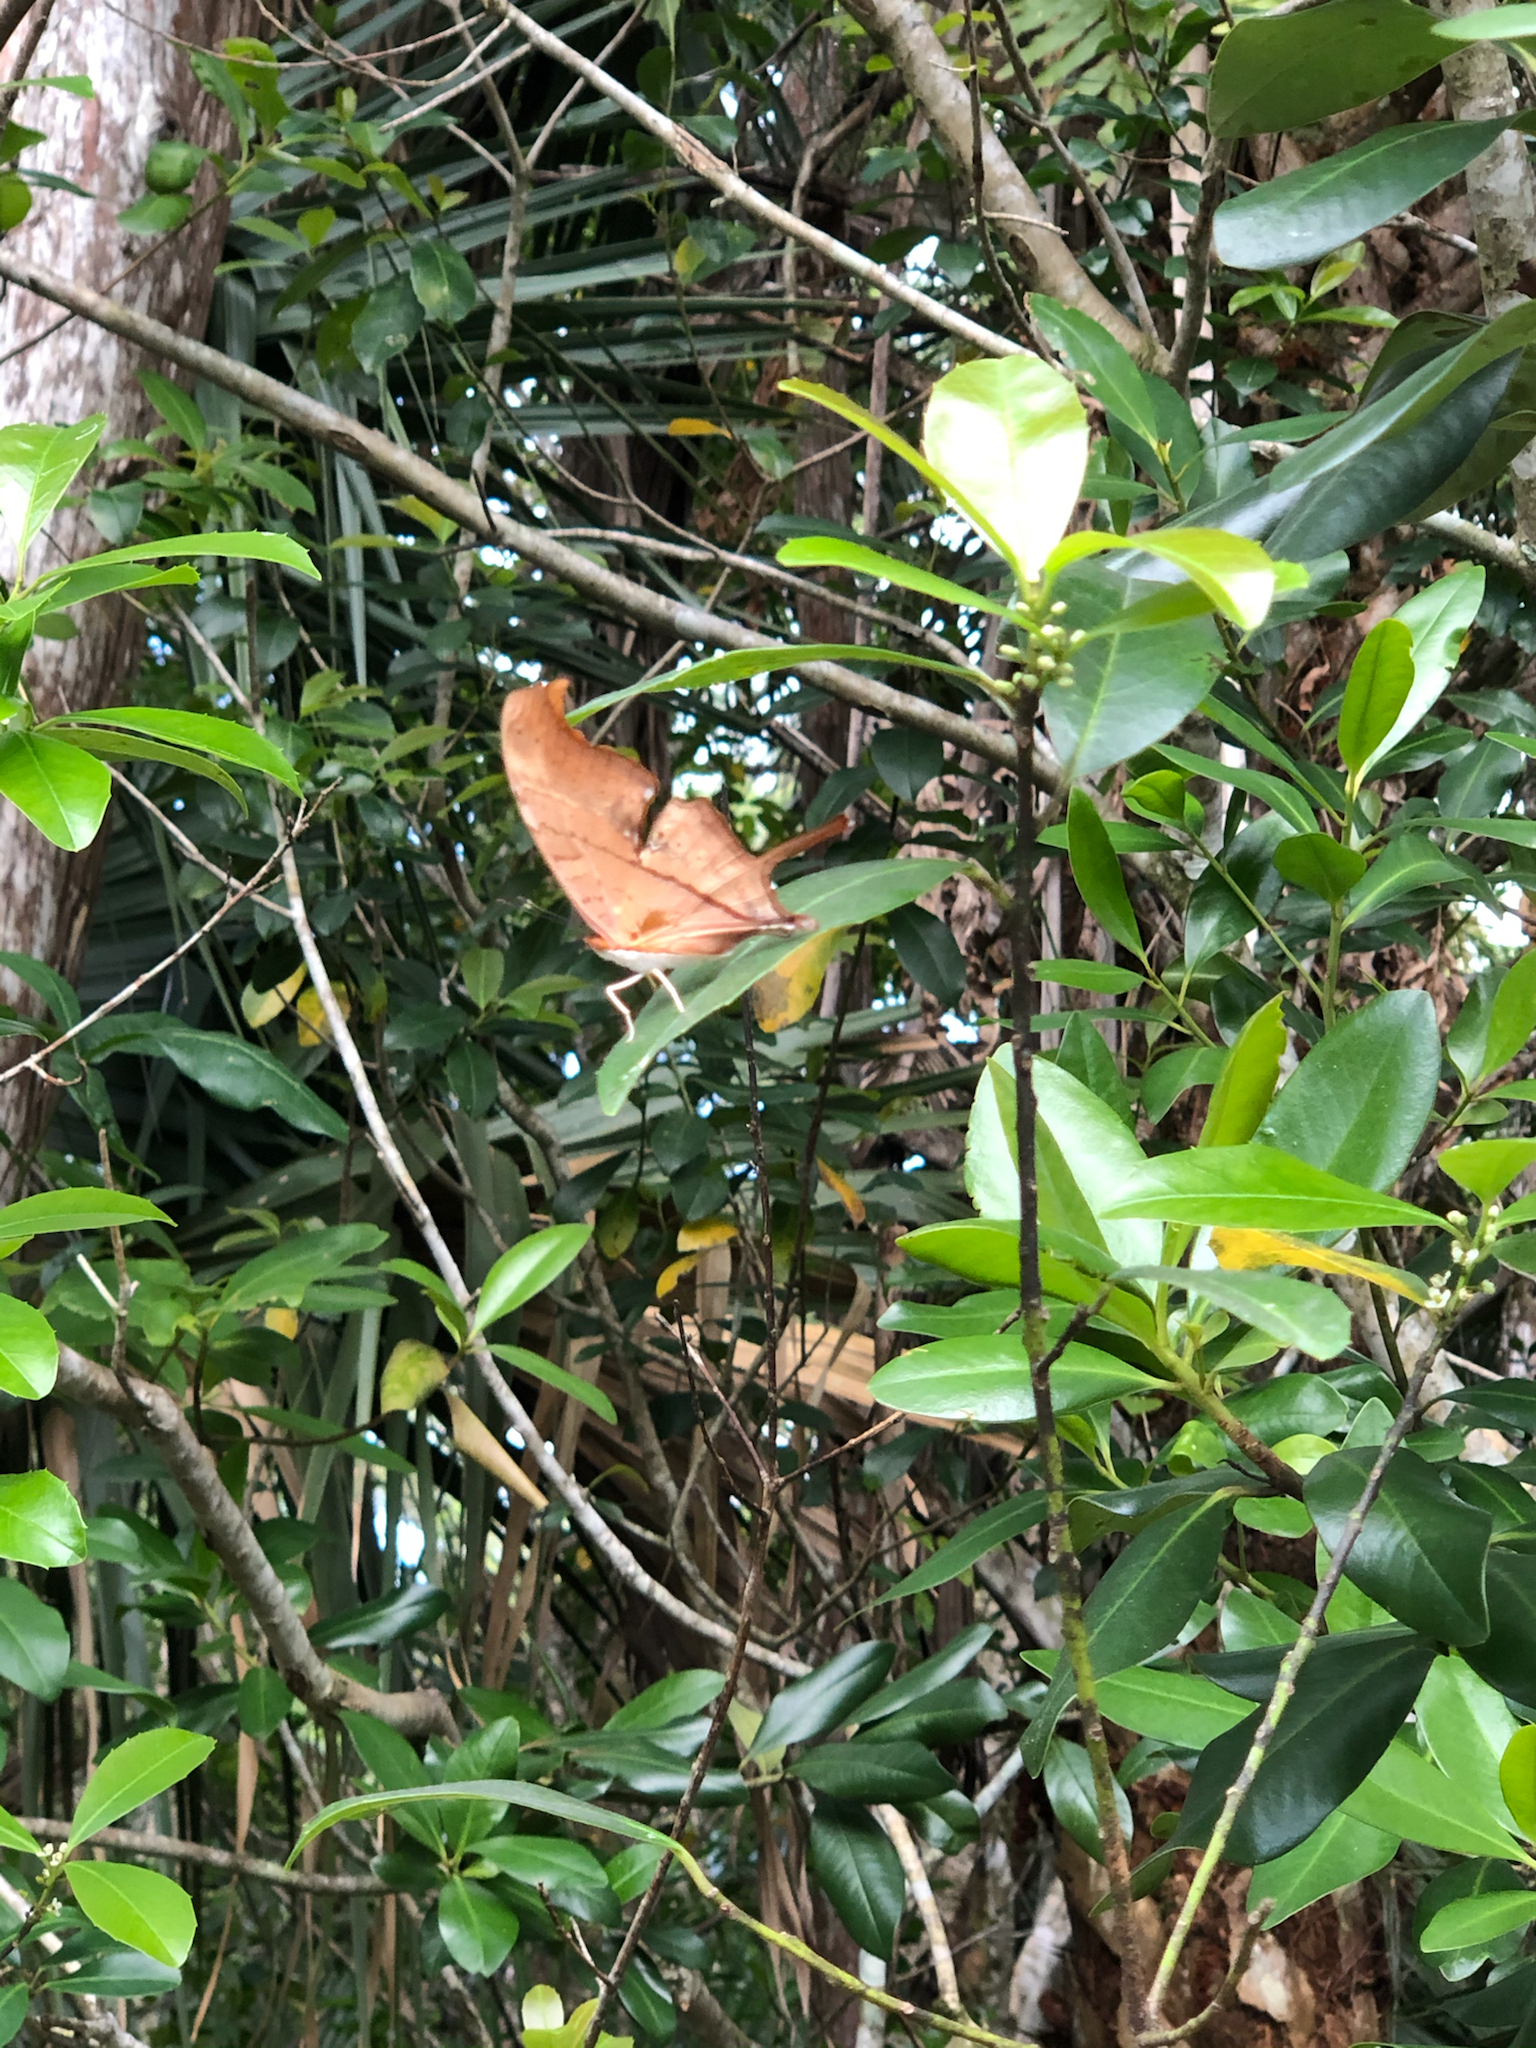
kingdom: Animalia
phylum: Arthropoda
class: Insecta
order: Lepidoptera
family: Nymphalidae
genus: Marpesia
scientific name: Marpesia petreus
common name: Red dagger wing
